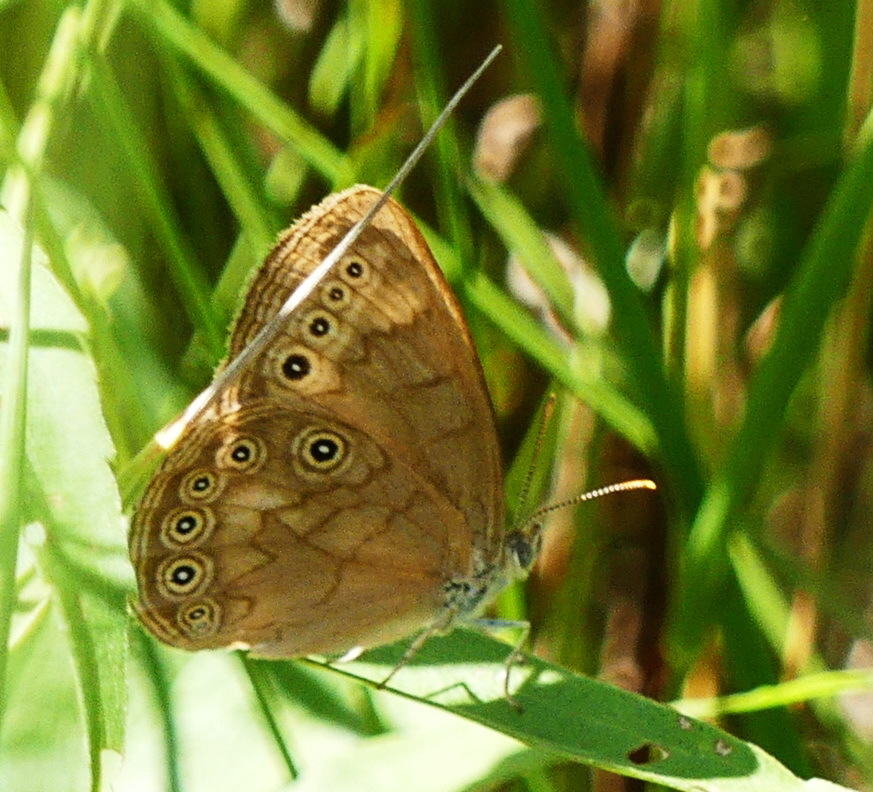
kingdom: Animalia
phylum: Arthropoda
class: Insecta
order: Lepidoptera
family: Nymphalidae
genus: Lethe
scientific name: Lethe eurydice
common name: Eyed brown
